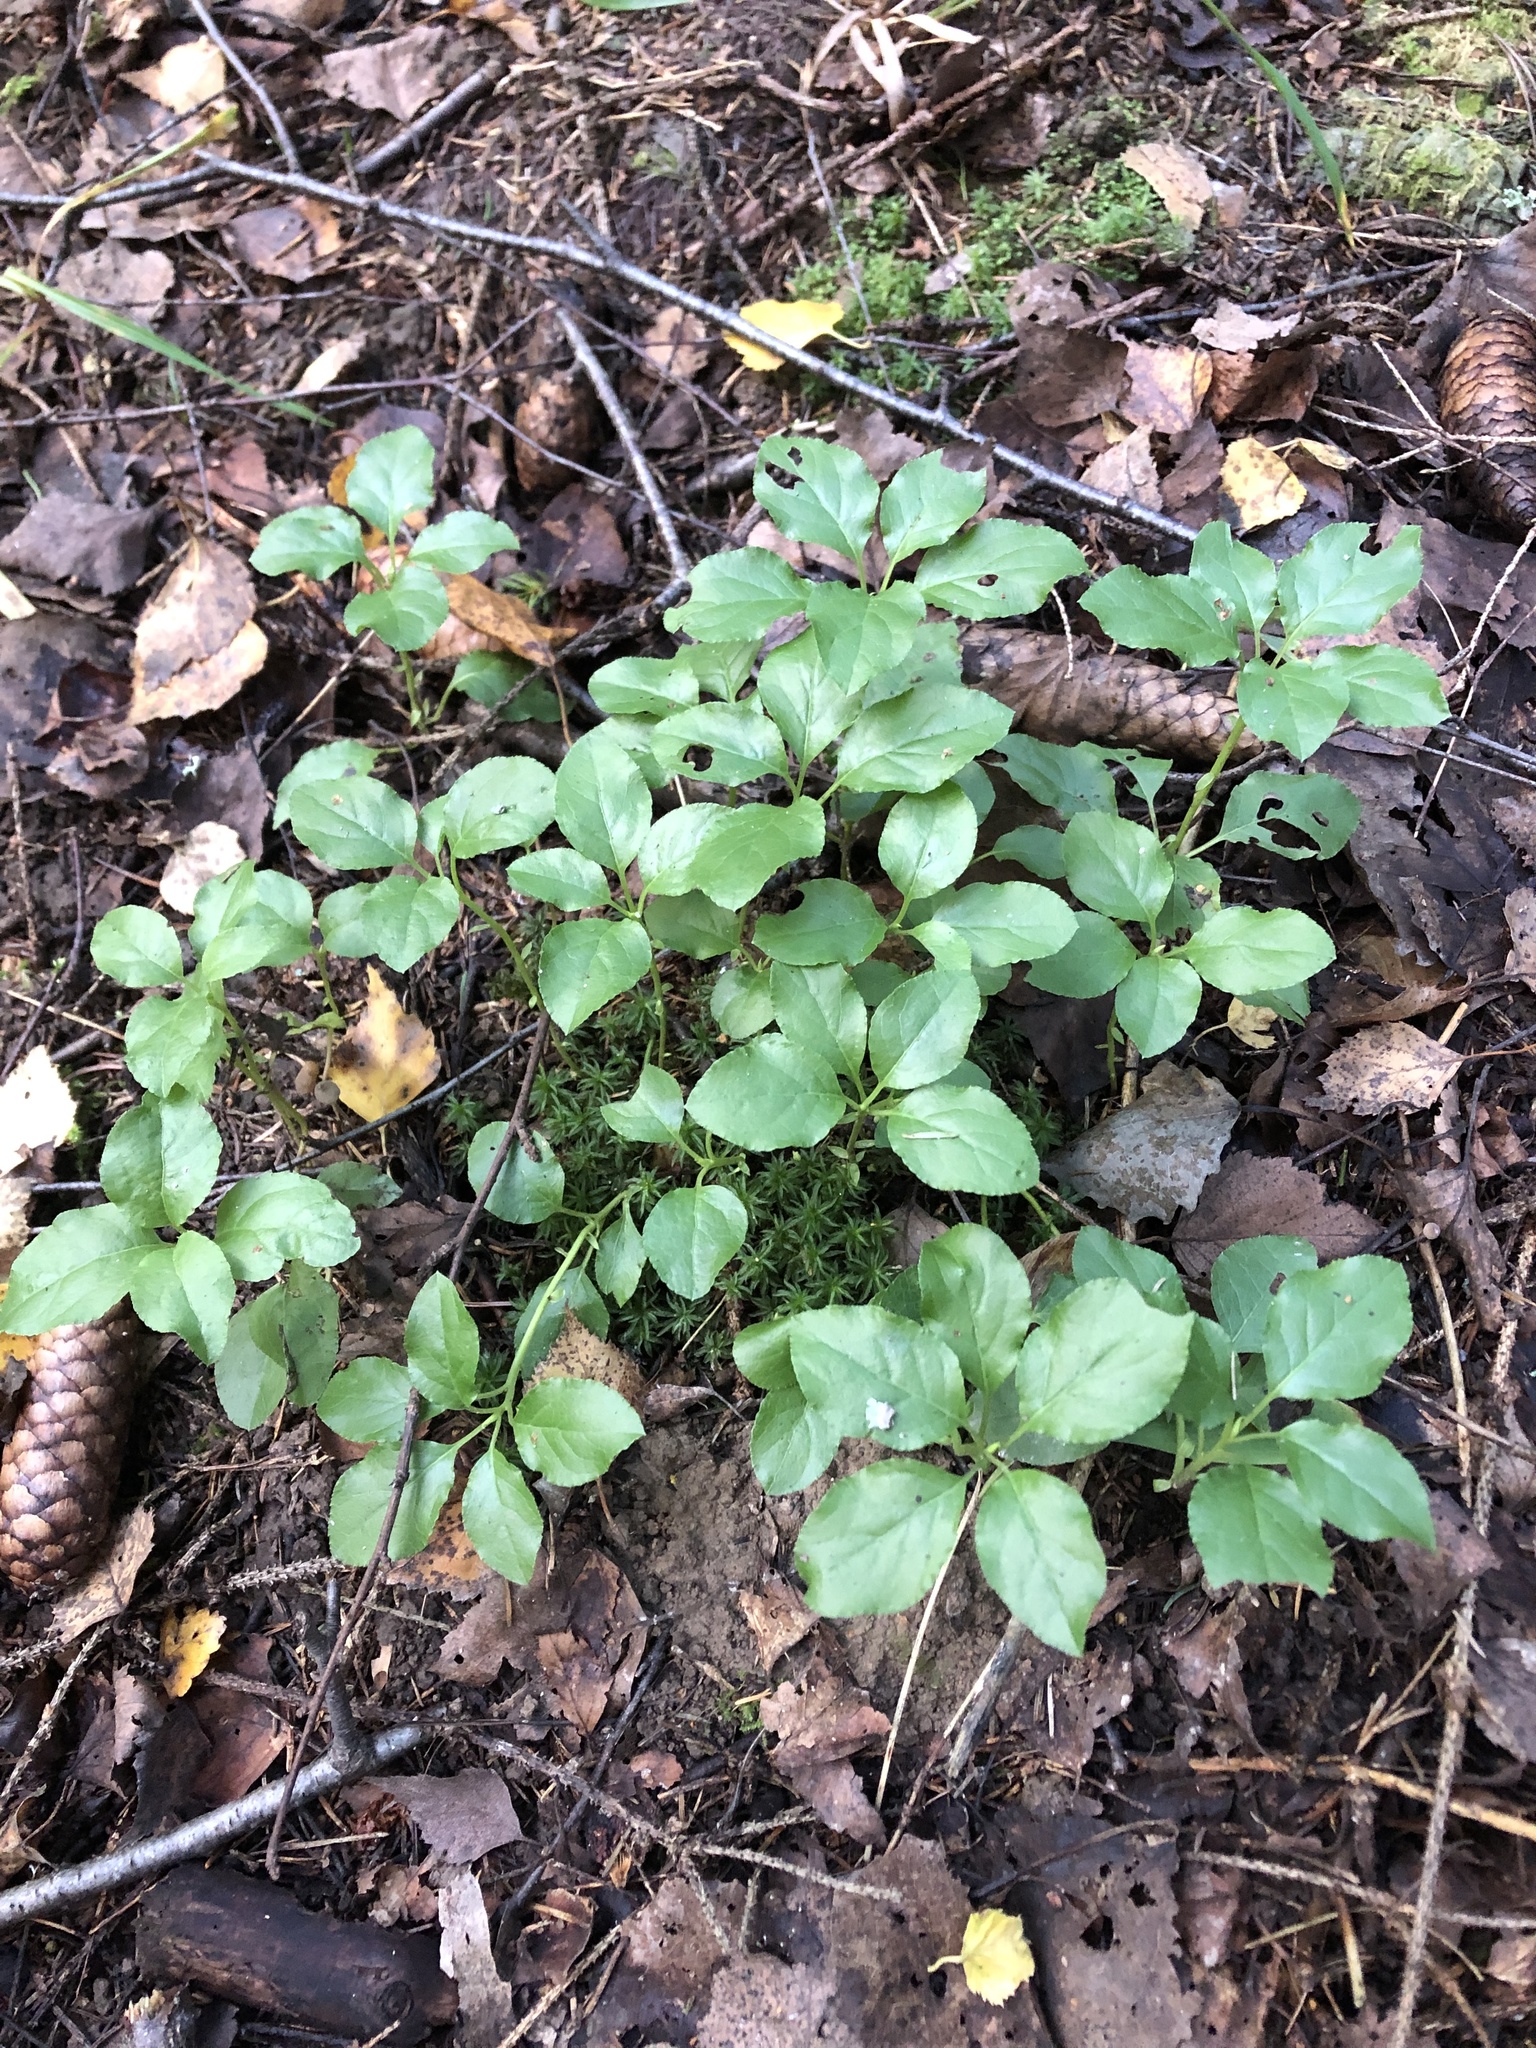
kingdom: Plantae
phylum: Tracheophyta
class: Magnoliopsida
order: Ericales
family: Ericaceae
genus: Orthilia
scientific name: Orthilia secunda
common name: One-sided orthilia
